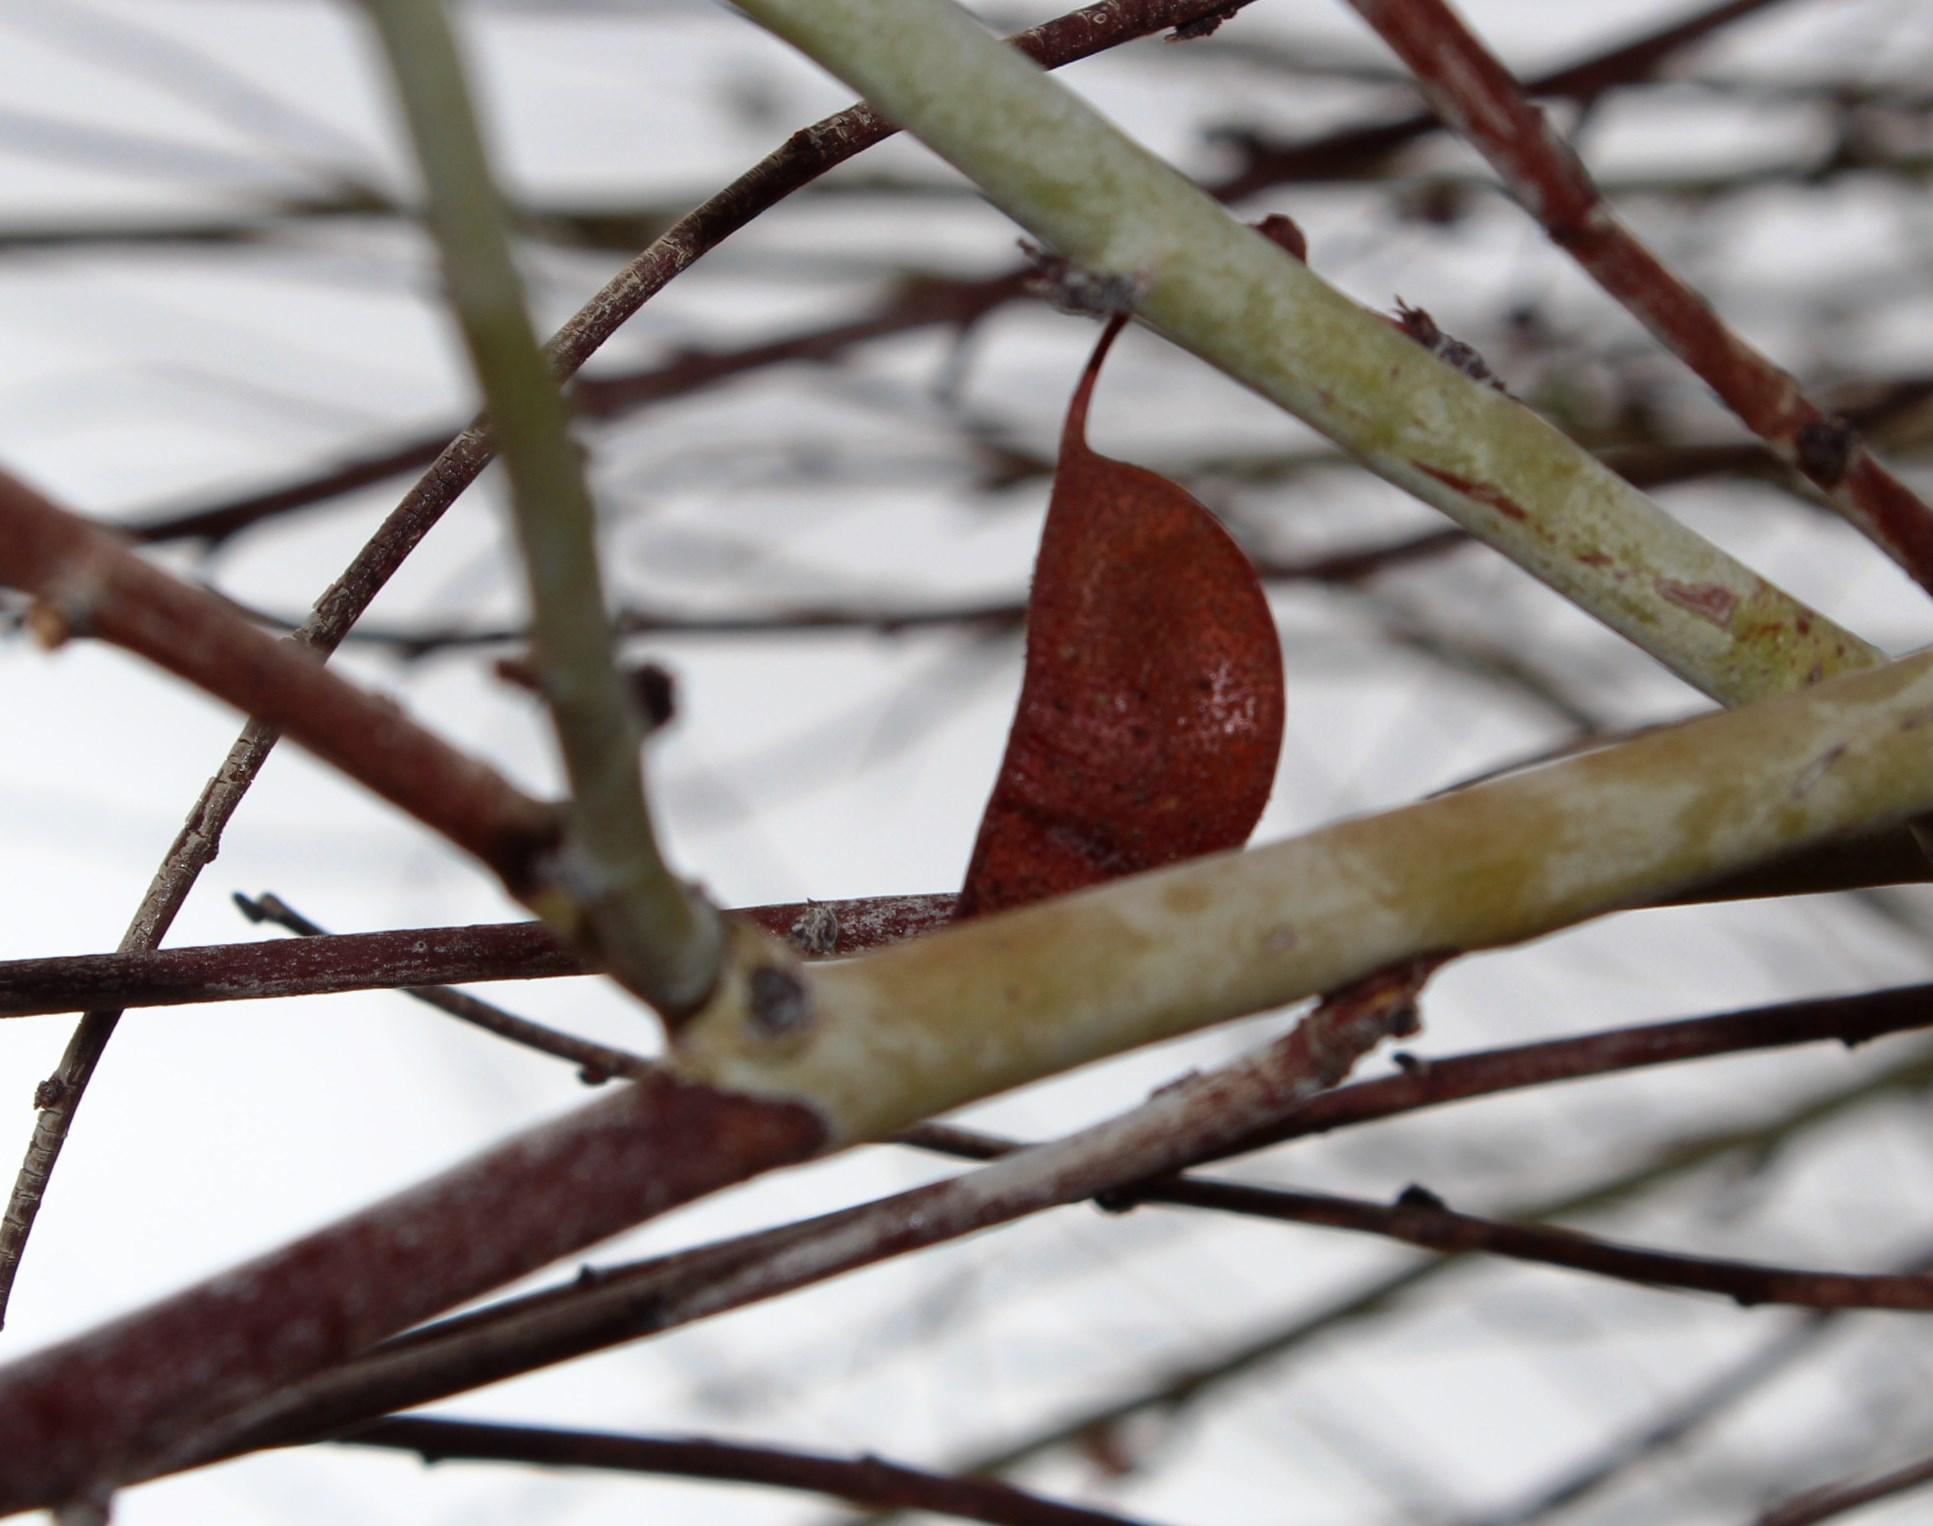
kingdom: Plantae
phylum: Tracheophyta
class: Magnoliopsida
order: Fabales
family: Fabaceae
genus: Adenolobus
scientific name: Adenolobus garipensis
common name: Butterfly-leaf
